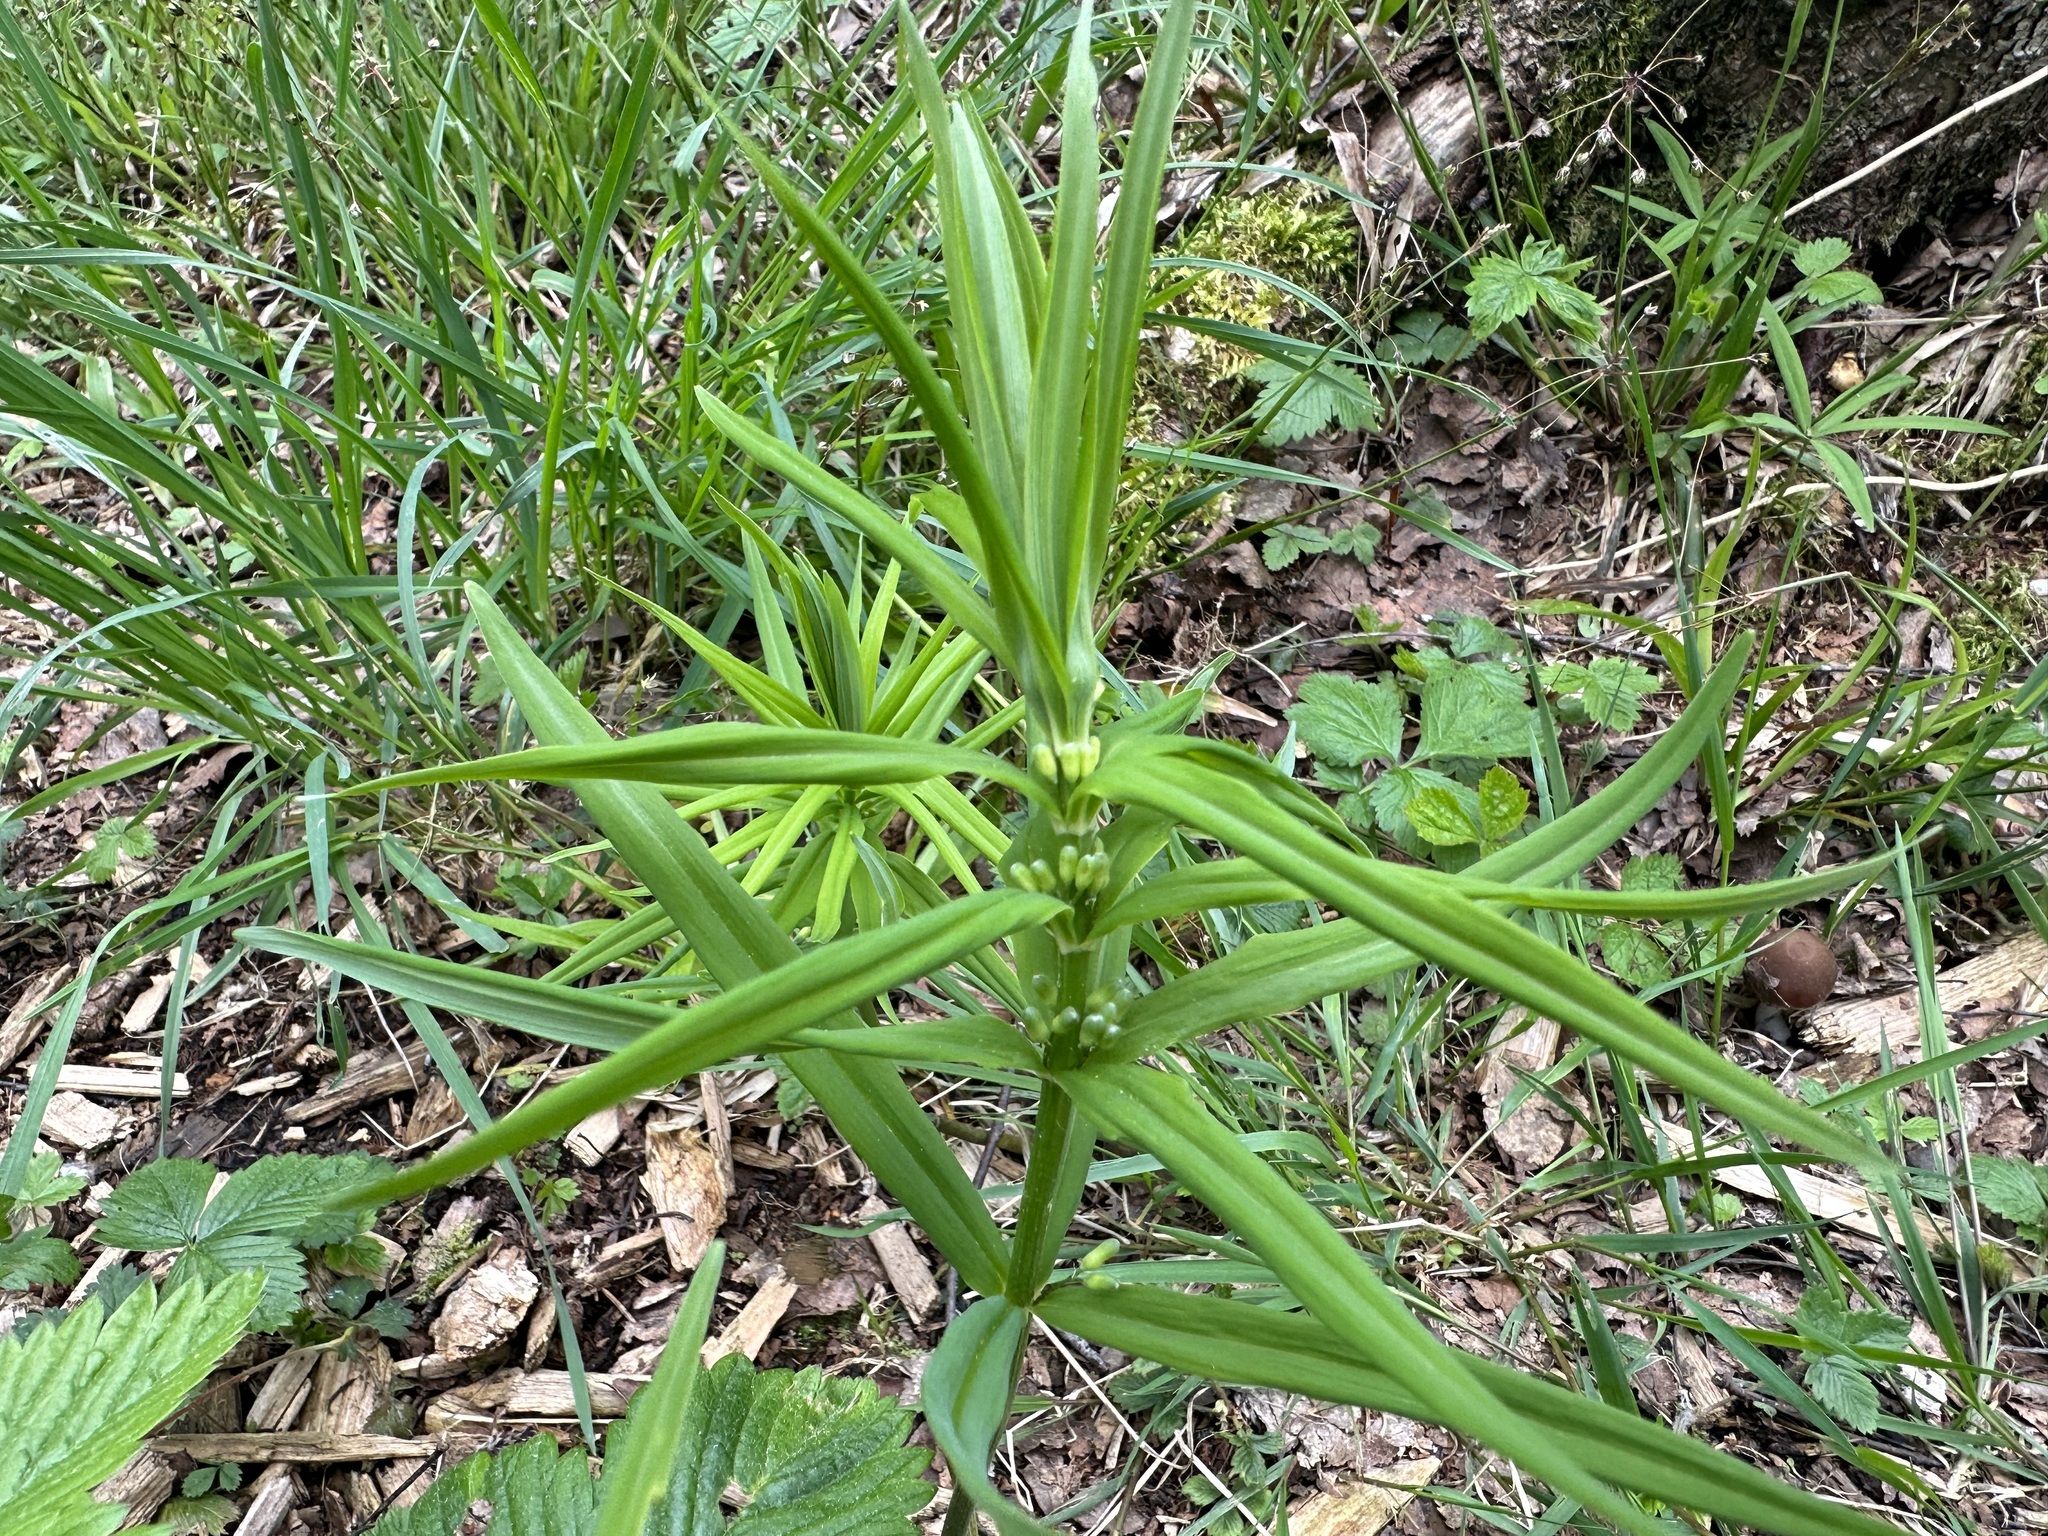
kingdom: Plantae
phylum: Tracheophyta
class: Liliopsida
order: Asparagales
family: Asparagaceae
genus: Polygonatum
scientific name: Polygonatum verticillatum
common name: Whorled solomon's-seal
